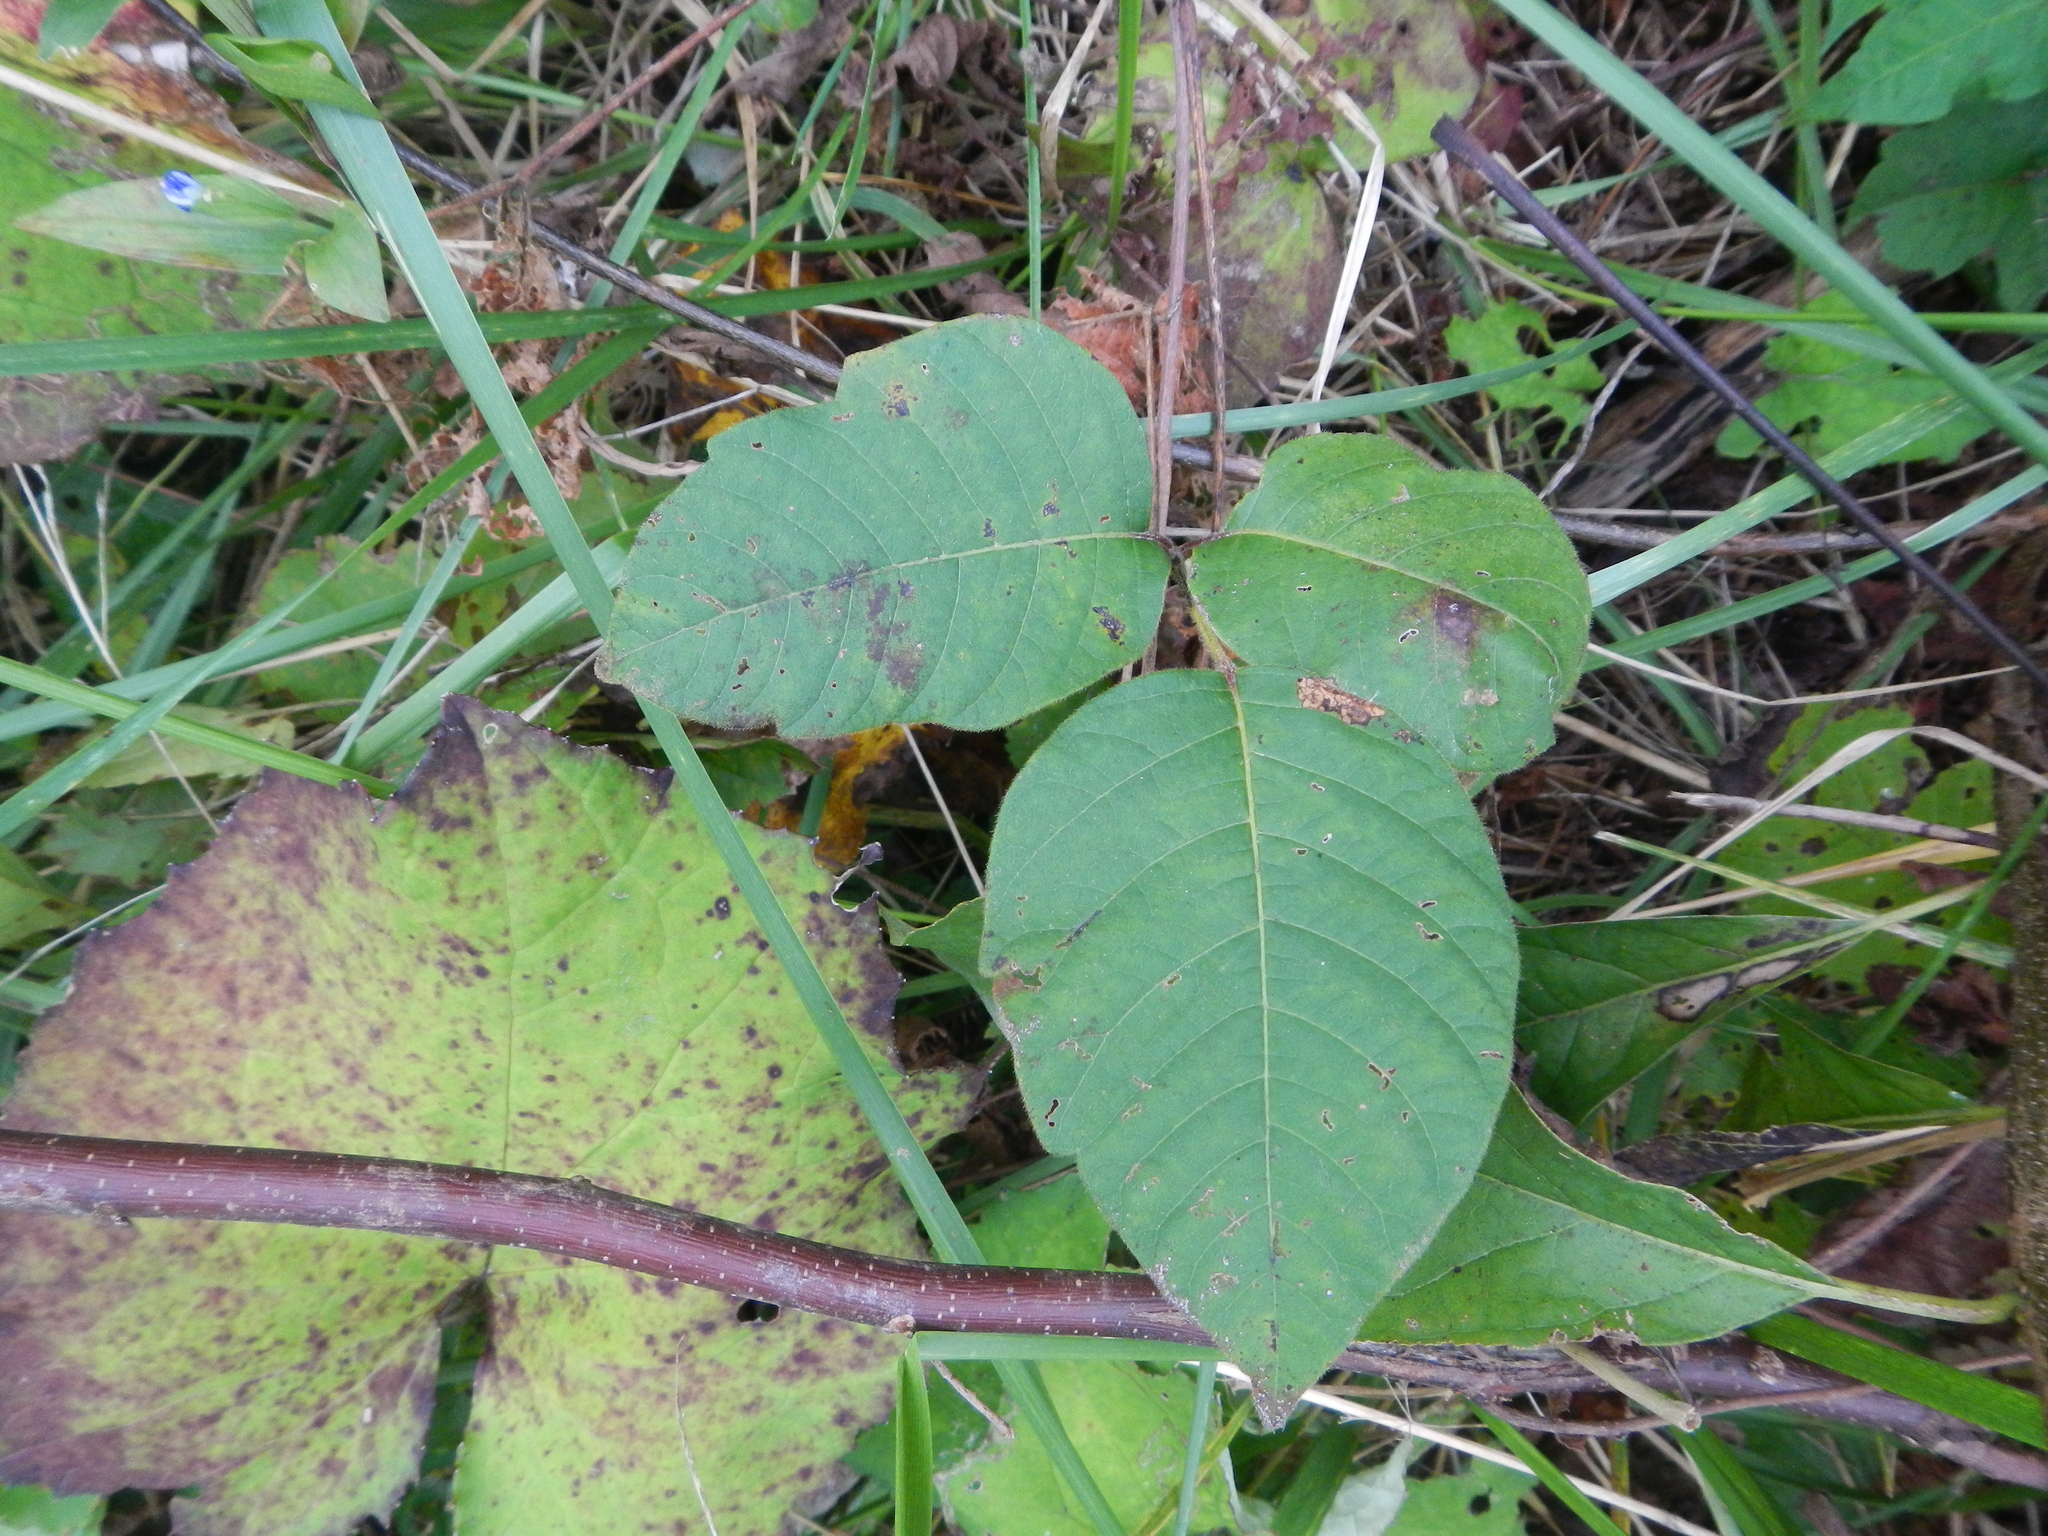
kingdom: Plantae
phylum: Tracheophyta
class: Magnoliopsida
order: Sapindales
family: Anacardiaceae
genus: Toxicodendron
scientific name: Toxicodendron radicans
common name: Poison ivy
